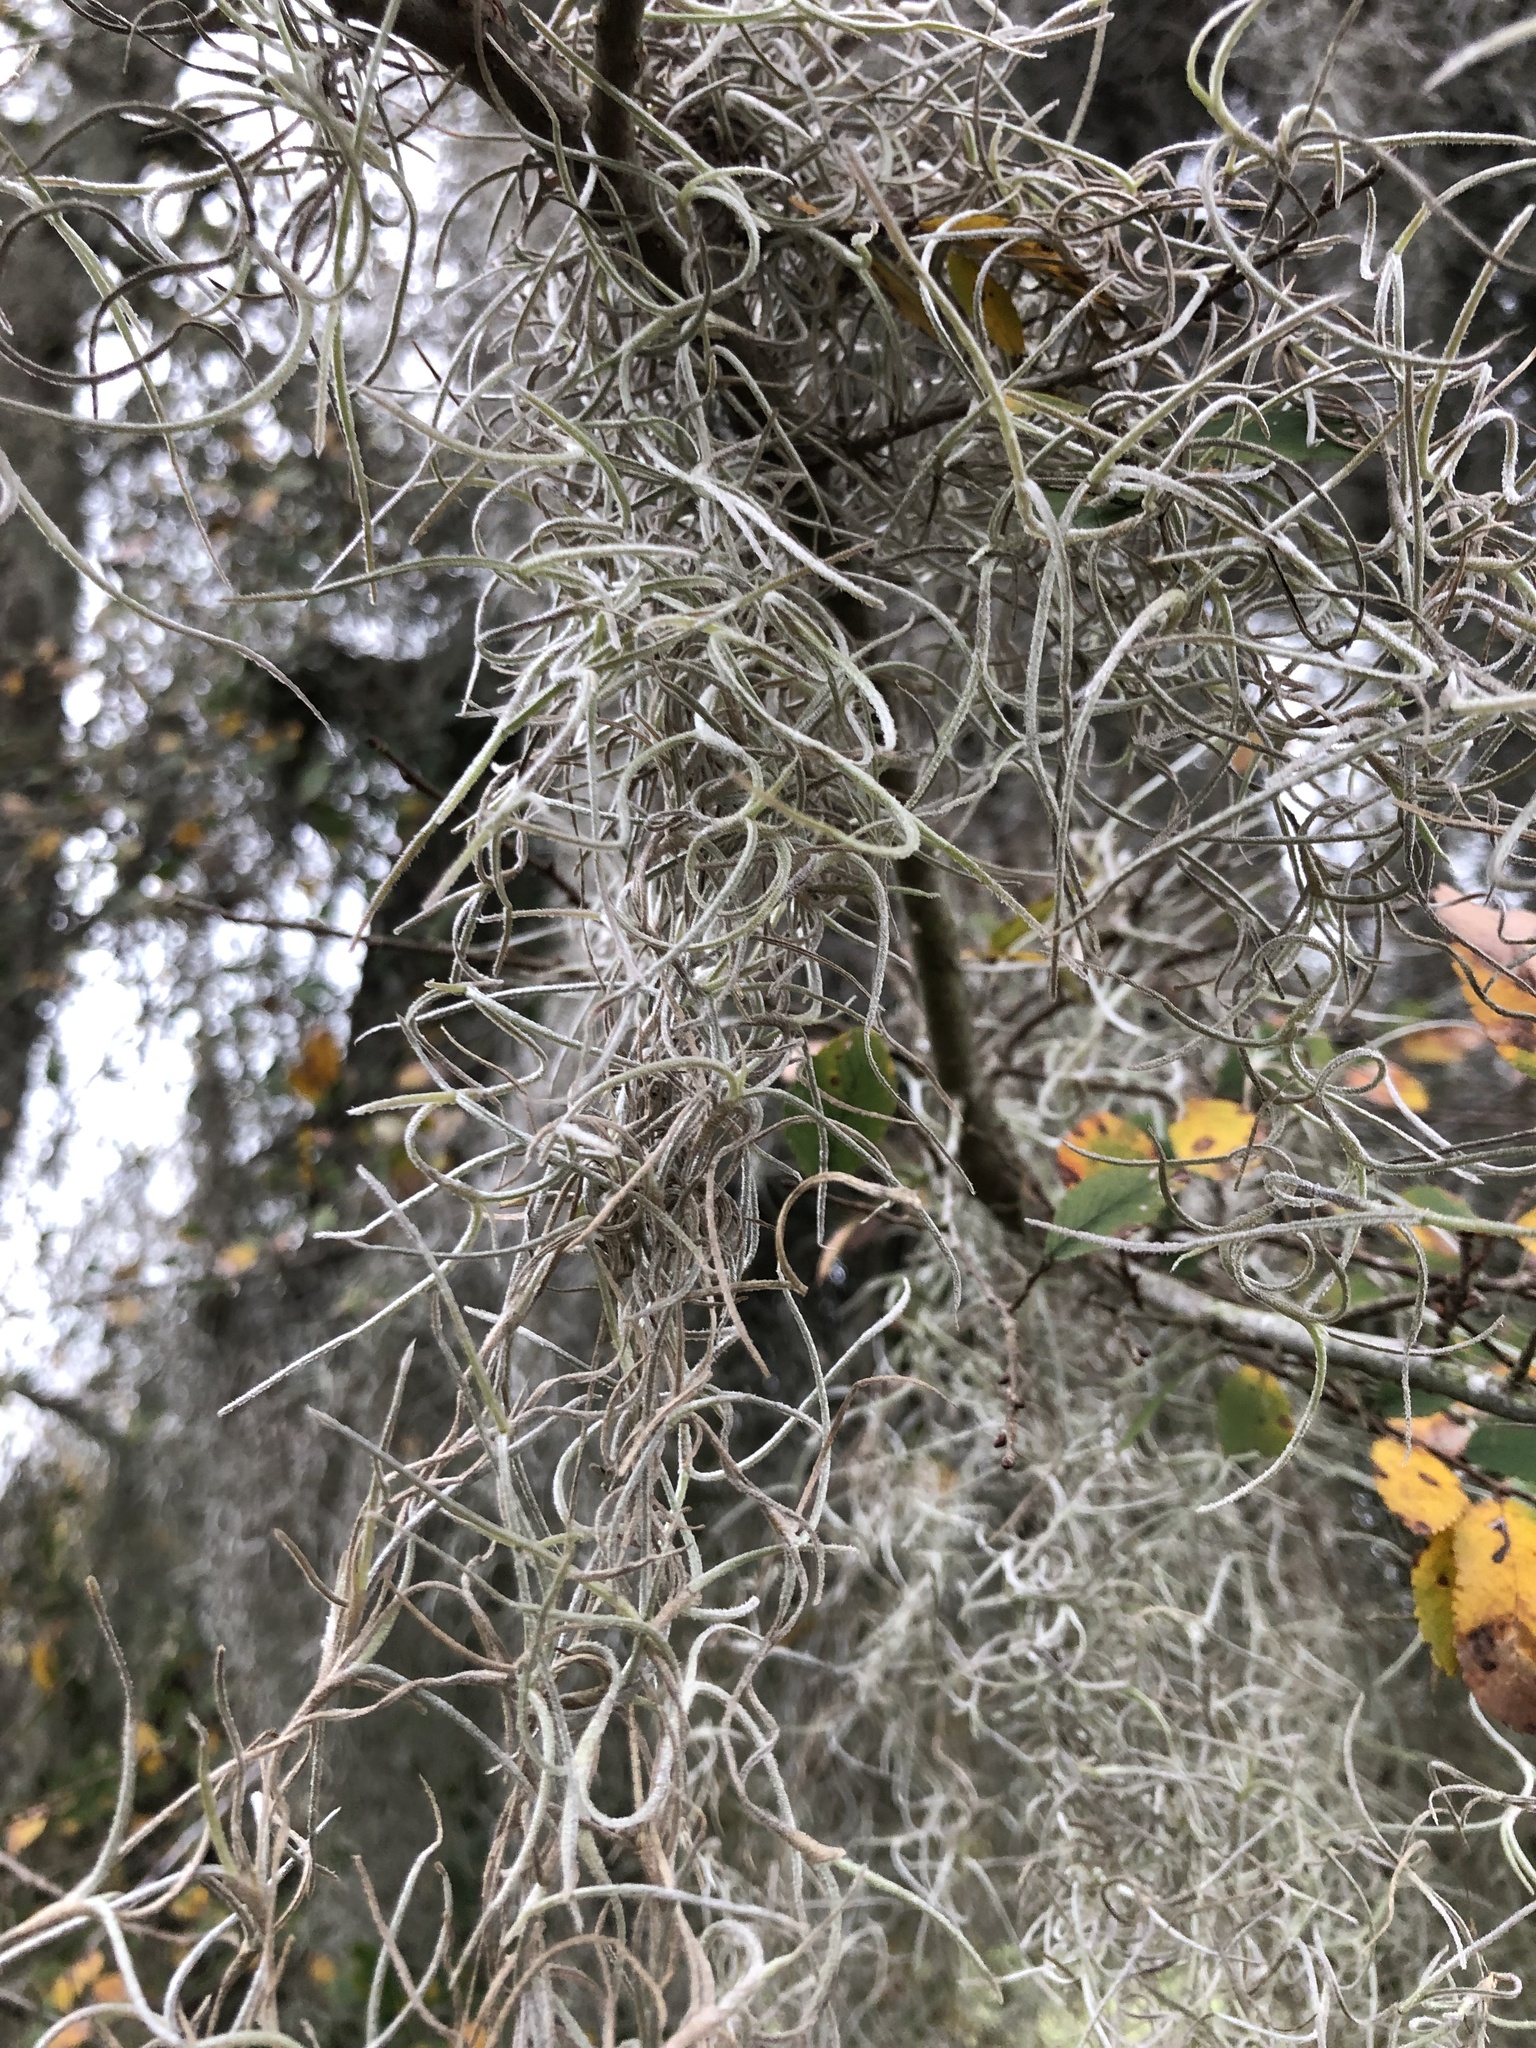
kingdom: Plantae
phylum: Tracheophyta
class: Liliopsida
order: Poales
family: Bromeliaceae
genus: Tillandsia
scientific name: Tillandsia usneoides
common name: Spanish moss
